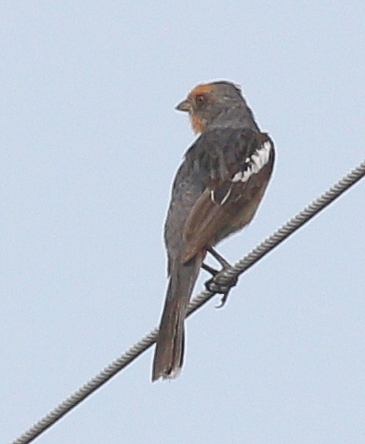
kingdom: Animalia
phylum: Chordata
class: Aves
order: Passeriformes
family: Cotingidae
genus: Phytotoma
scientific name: Phytotoma rutila
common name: White-tipped plantcutter
